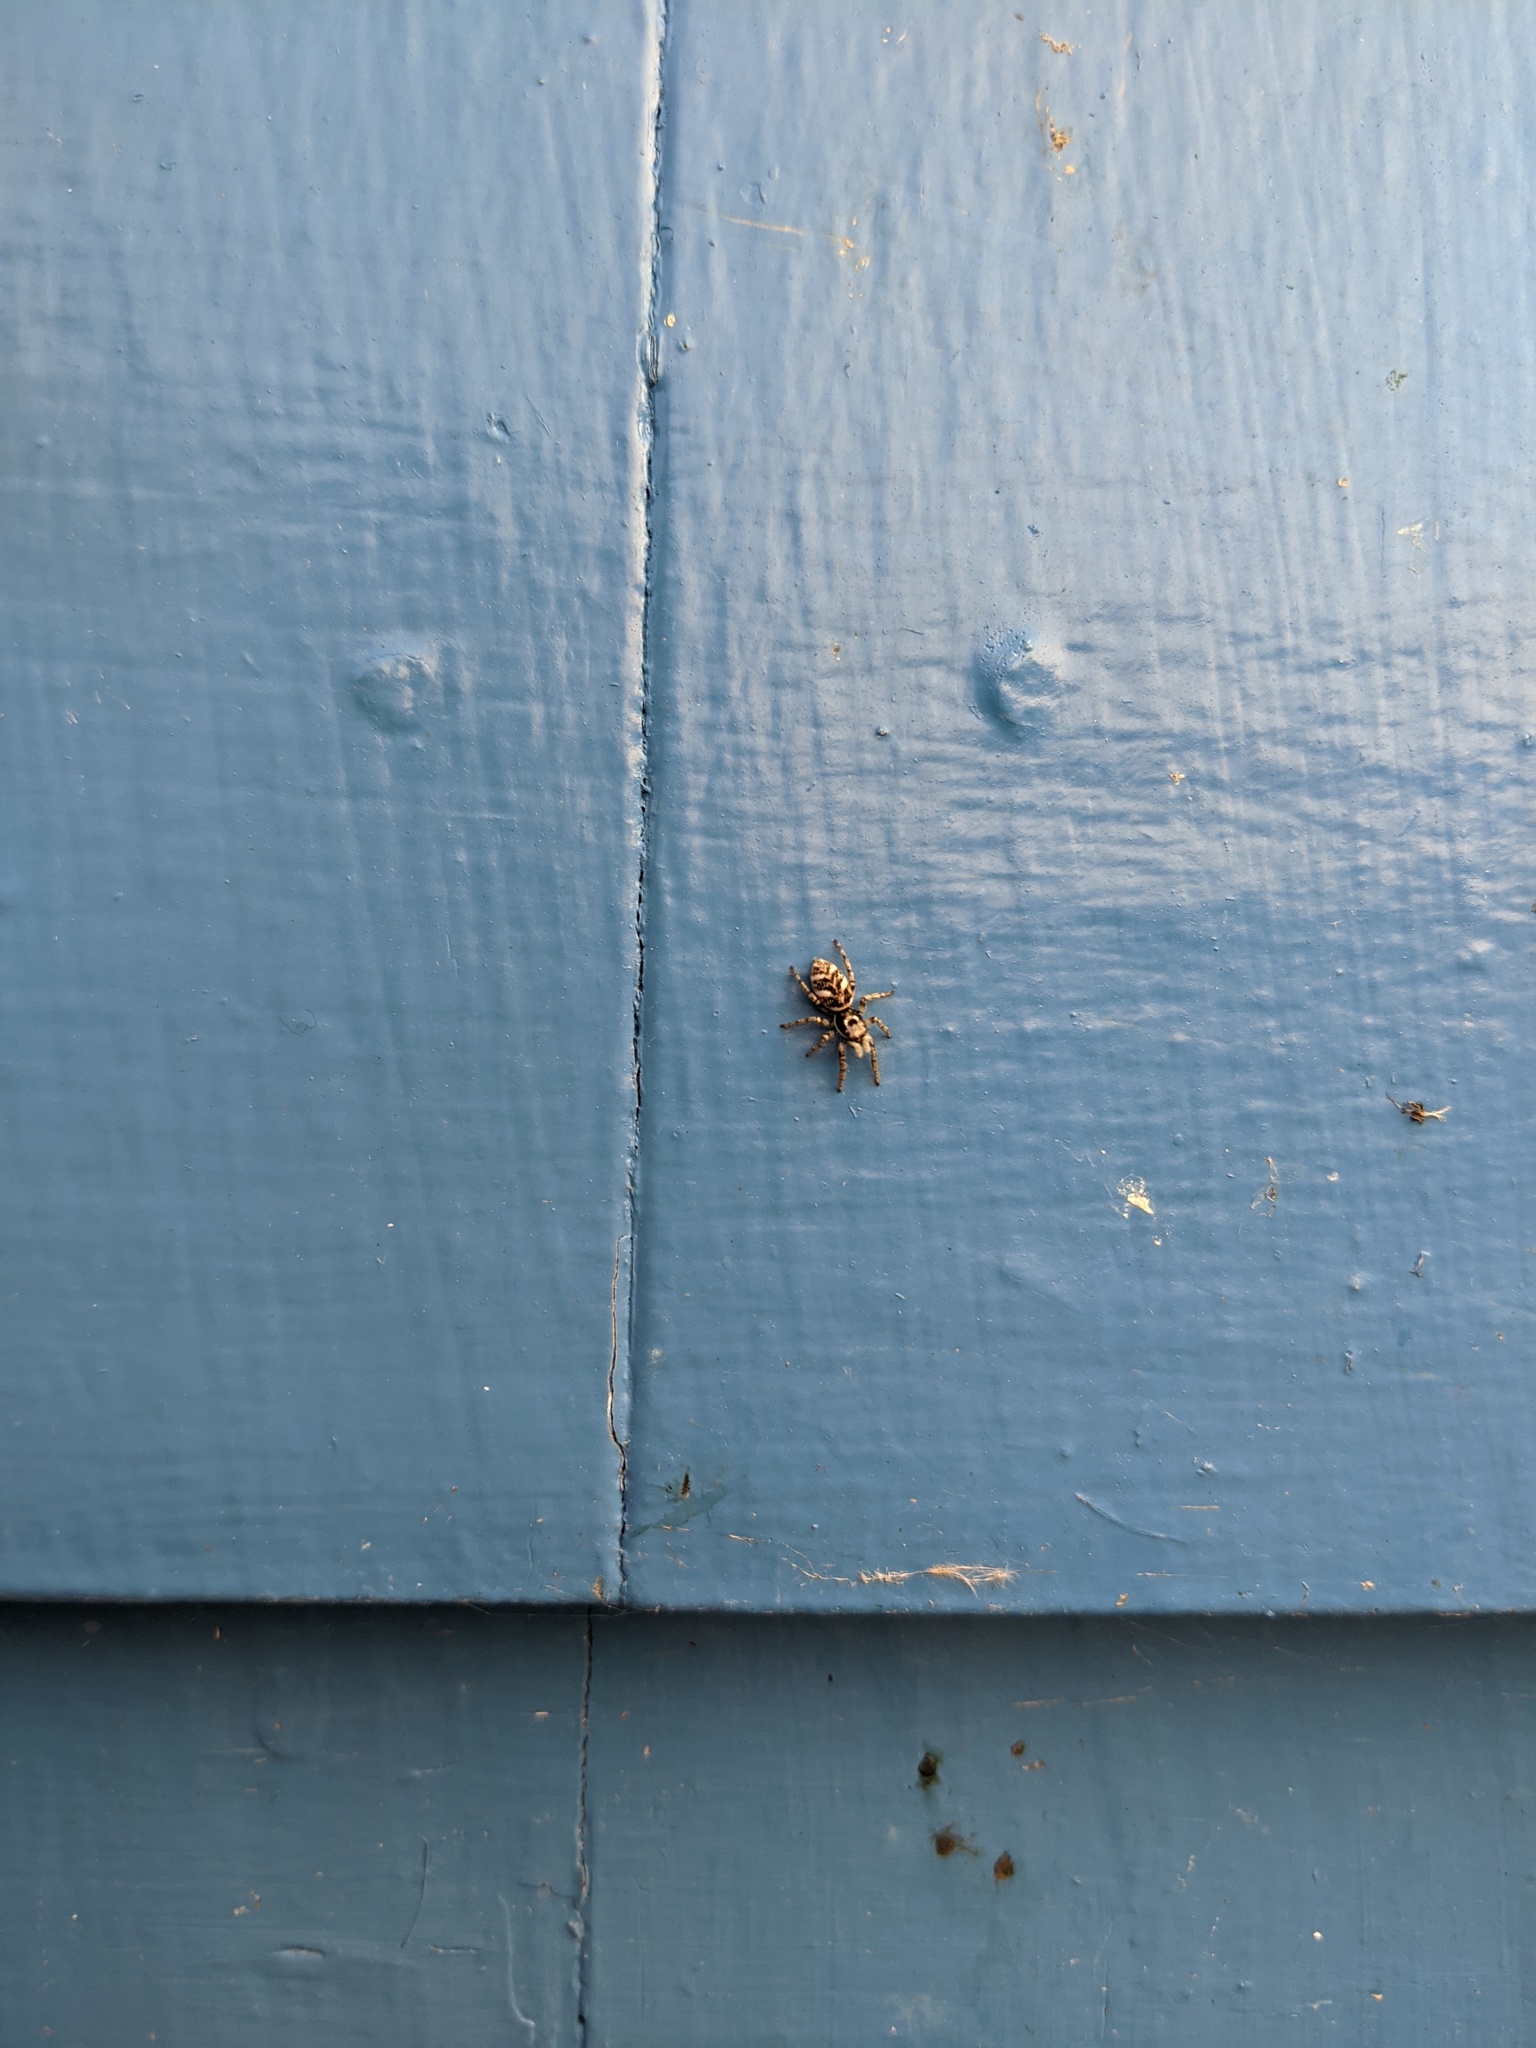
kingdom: Animalia
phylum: Arthropoda
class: Arachnida
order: Araneae
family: Salticidae
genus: Salticus
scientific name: Salticus scenicus
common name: Zebra jumper
